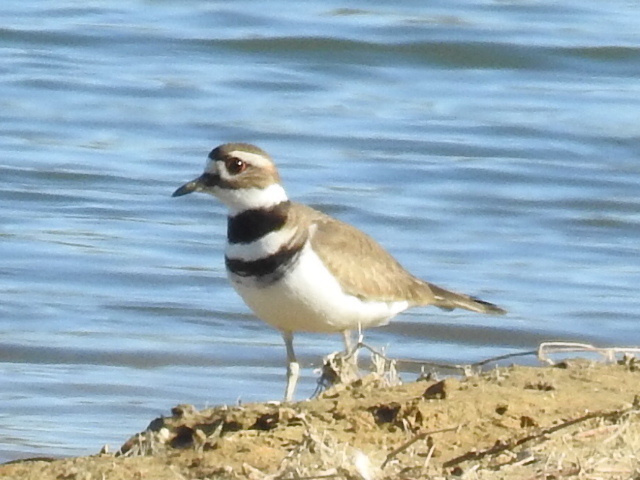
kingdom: Animalia
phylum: Chordata
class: Aves
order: Charadriiformes
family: Charadriidae
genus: Charadrius
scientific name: Charadrius vociferus
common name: Killdeer
